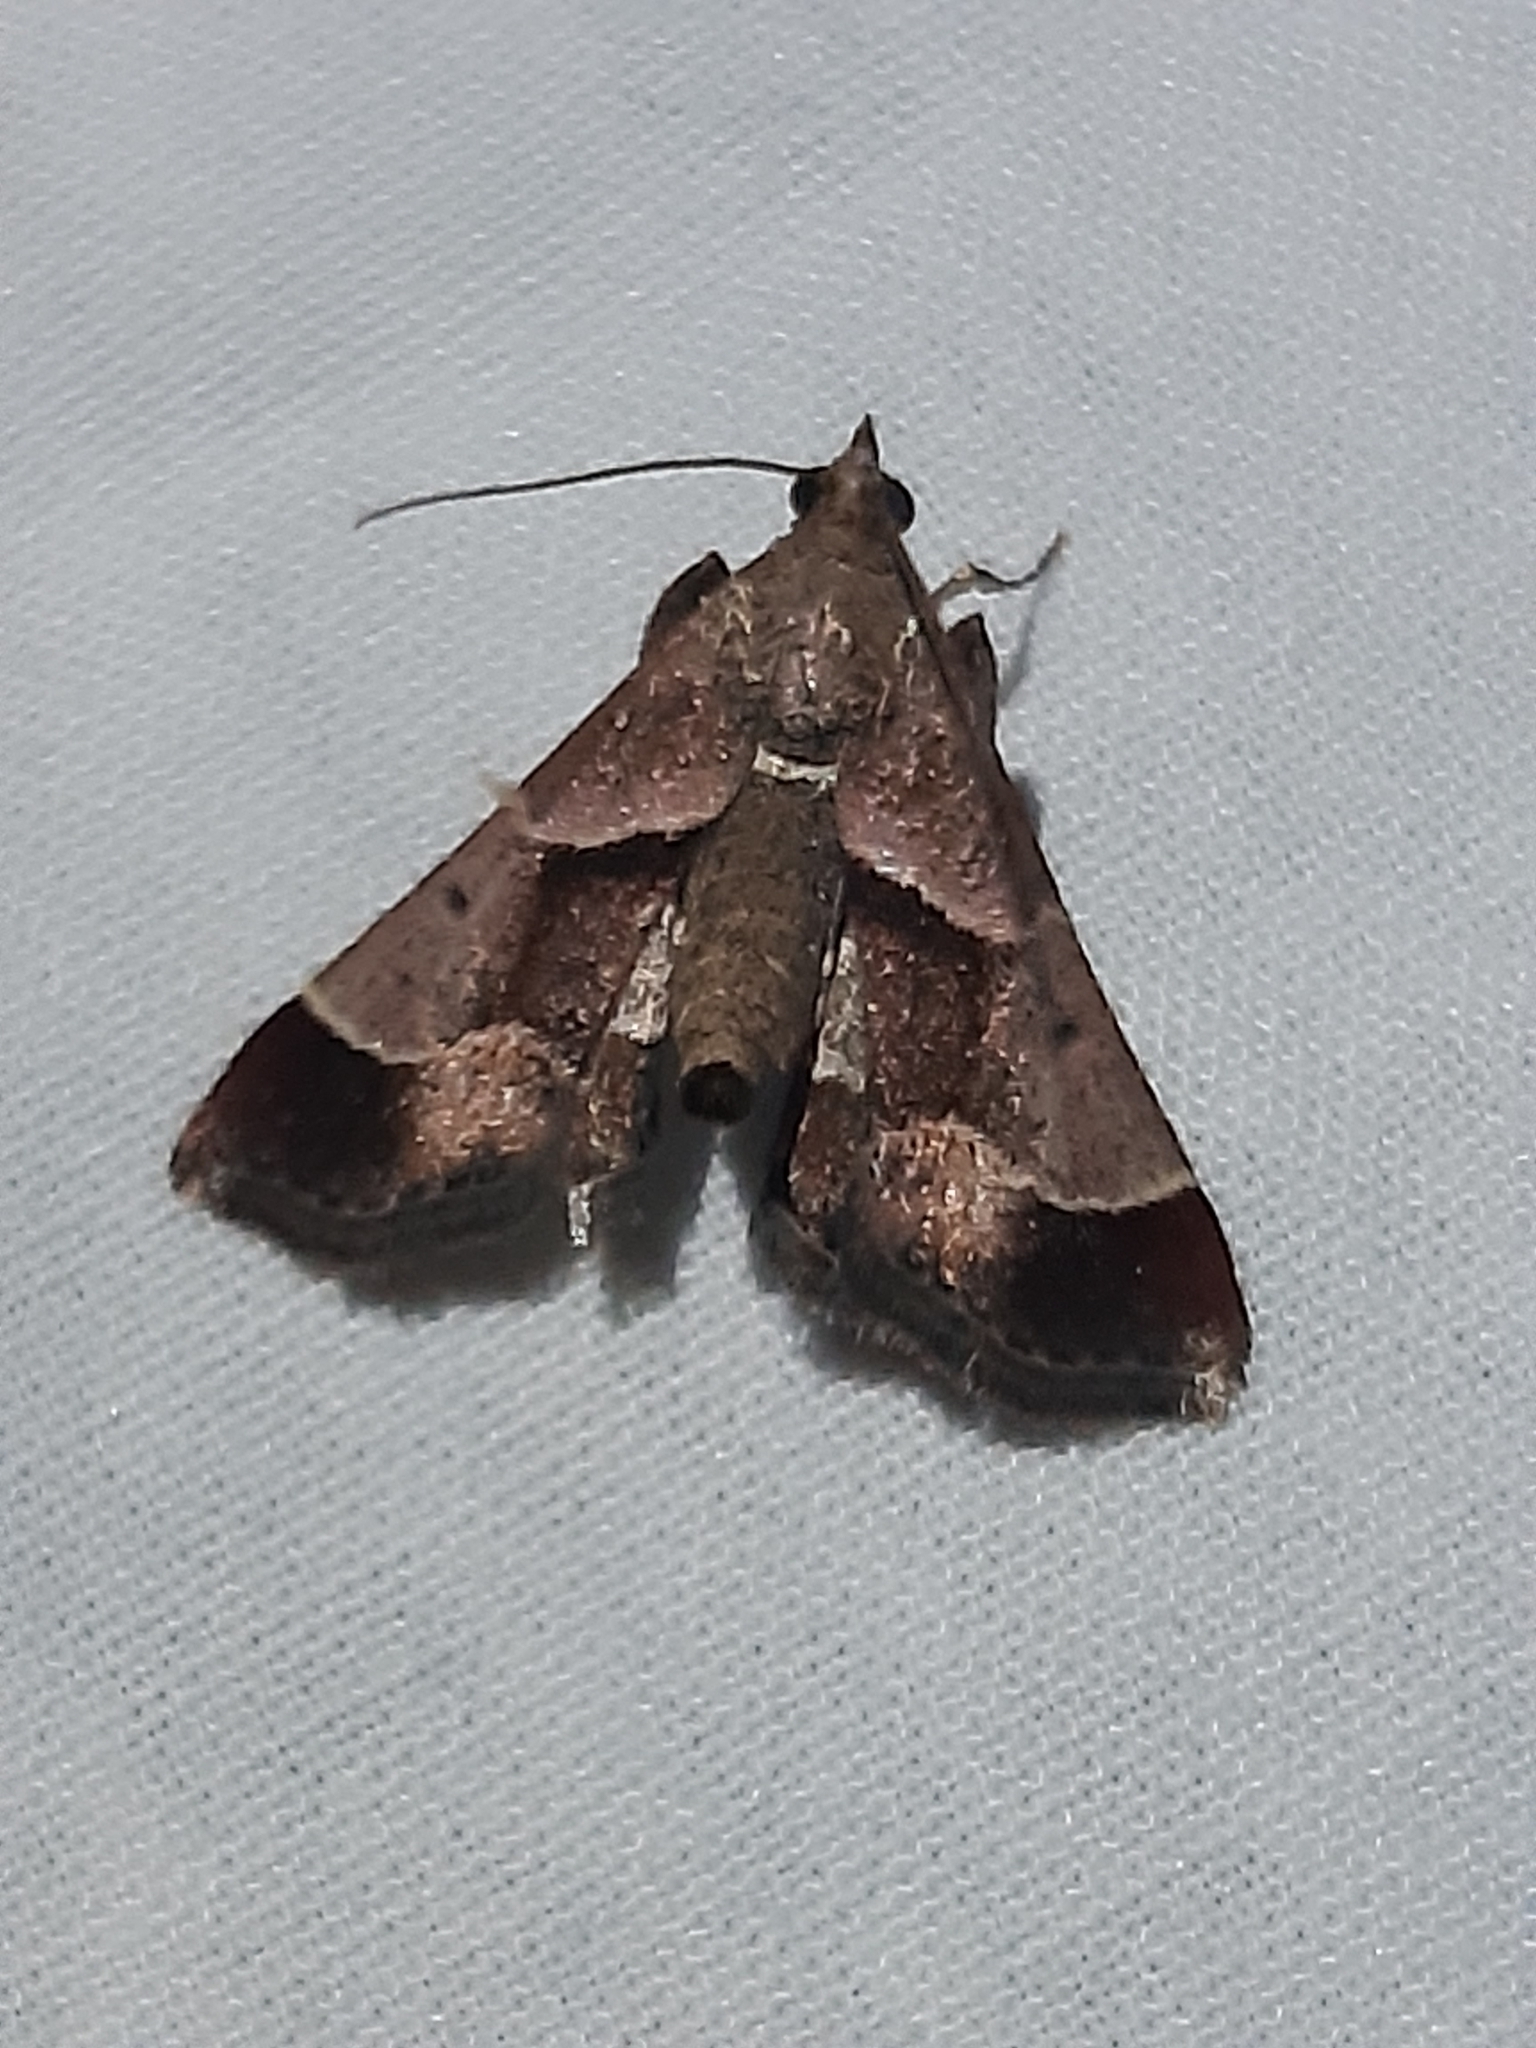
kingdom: Animalia
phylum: Arthropoda
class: Insecta
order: Lepidoptera
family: Pyralidae
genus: Gauna
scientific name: Gauna aegusalis
